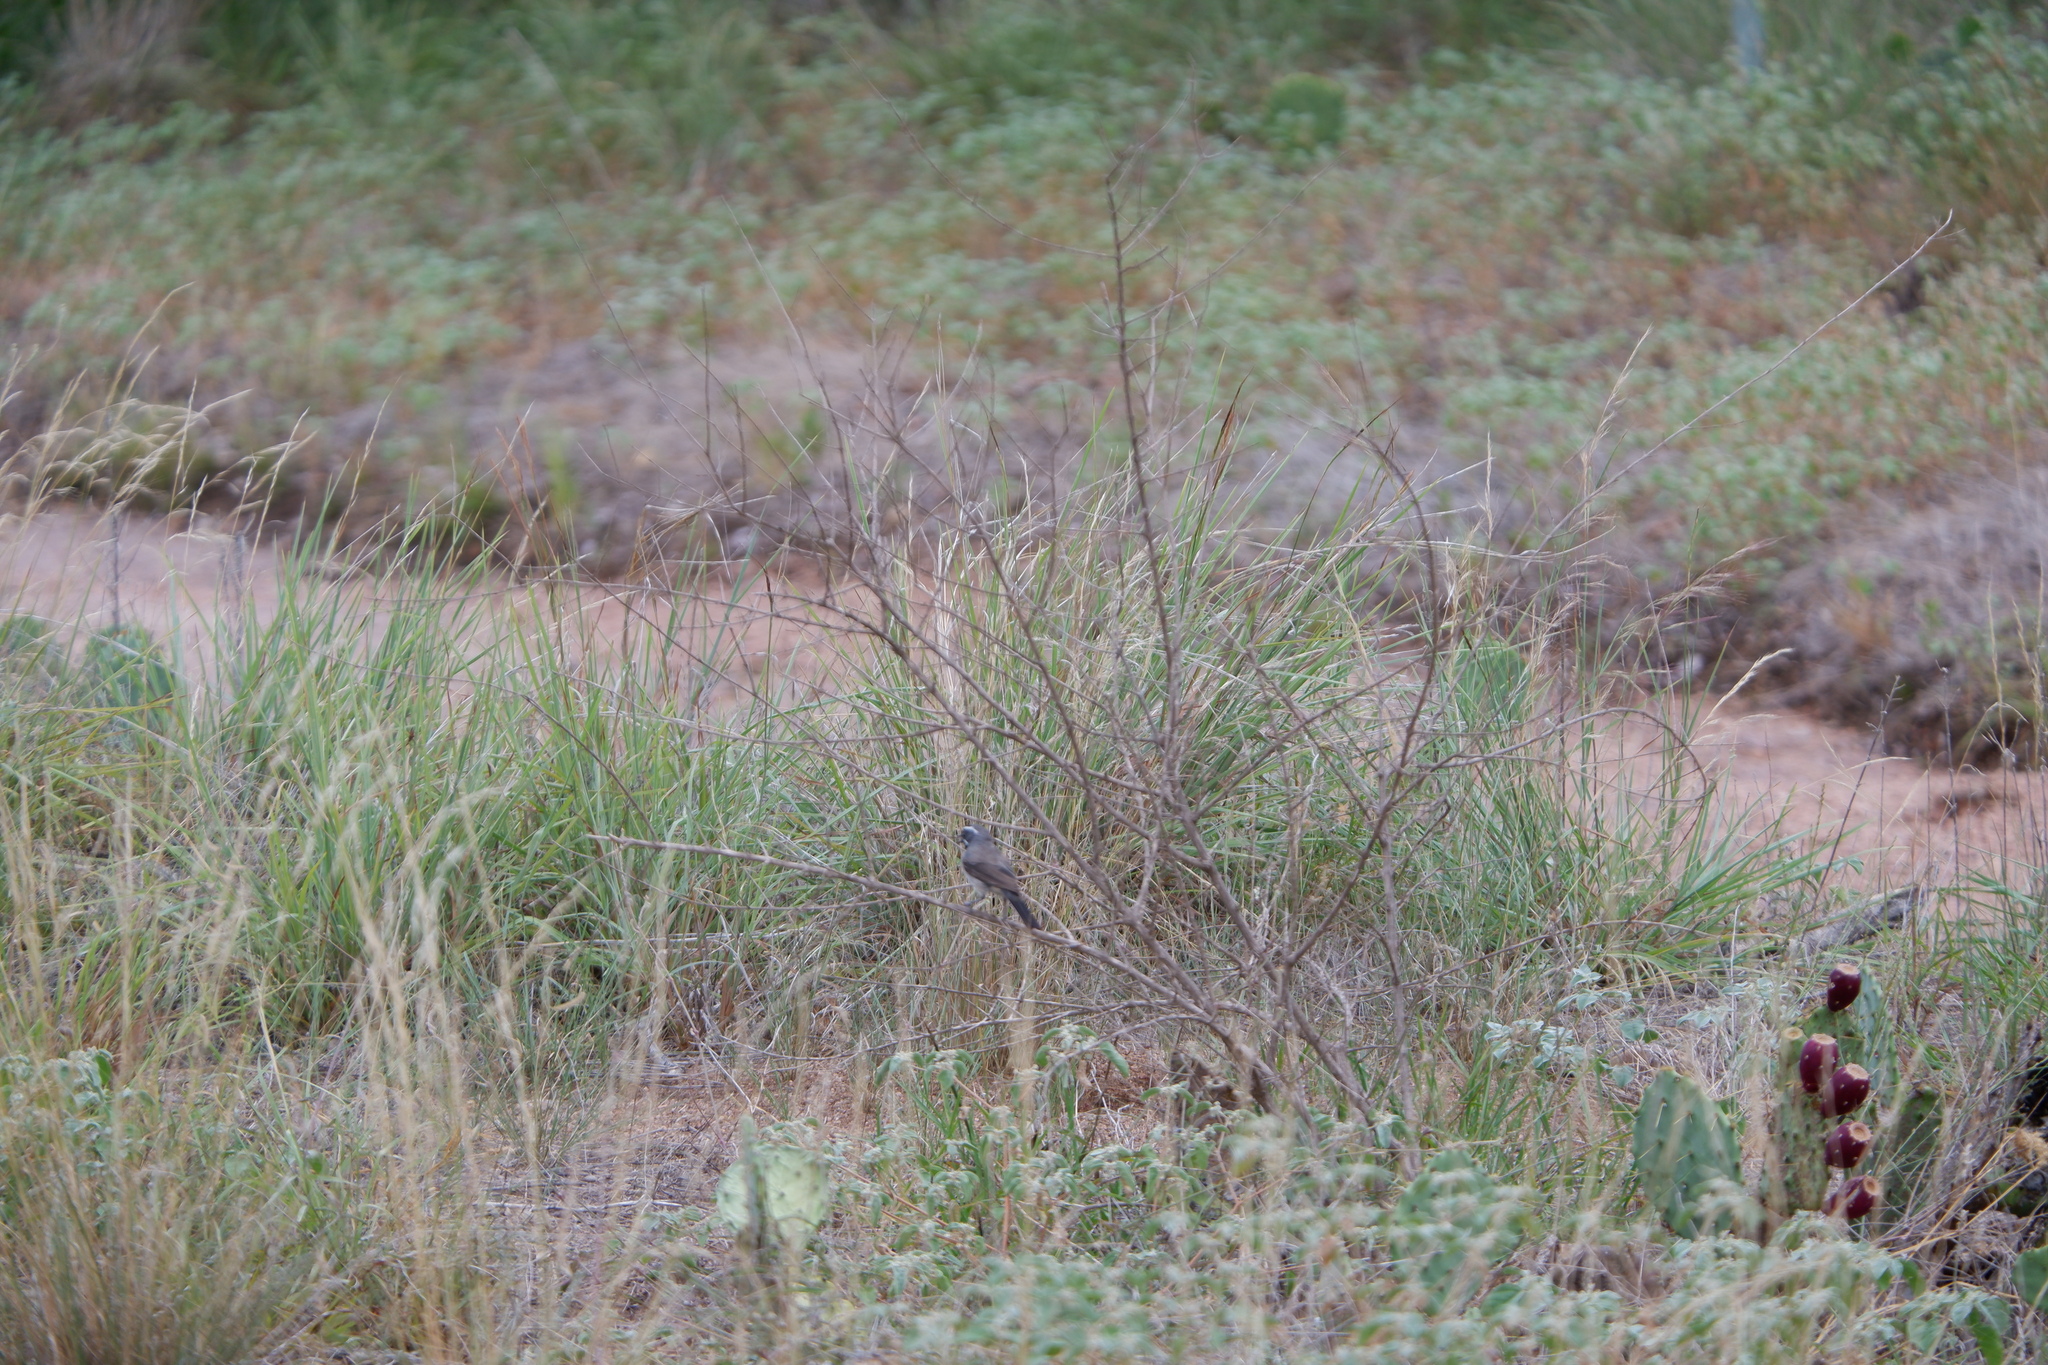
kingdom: Animalia
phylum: Chordata
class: Aves
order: Passeriformes
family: Passerellidae
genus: Amphispiza
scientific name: Amphispiza bilineata
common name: Black-throated sparrow
